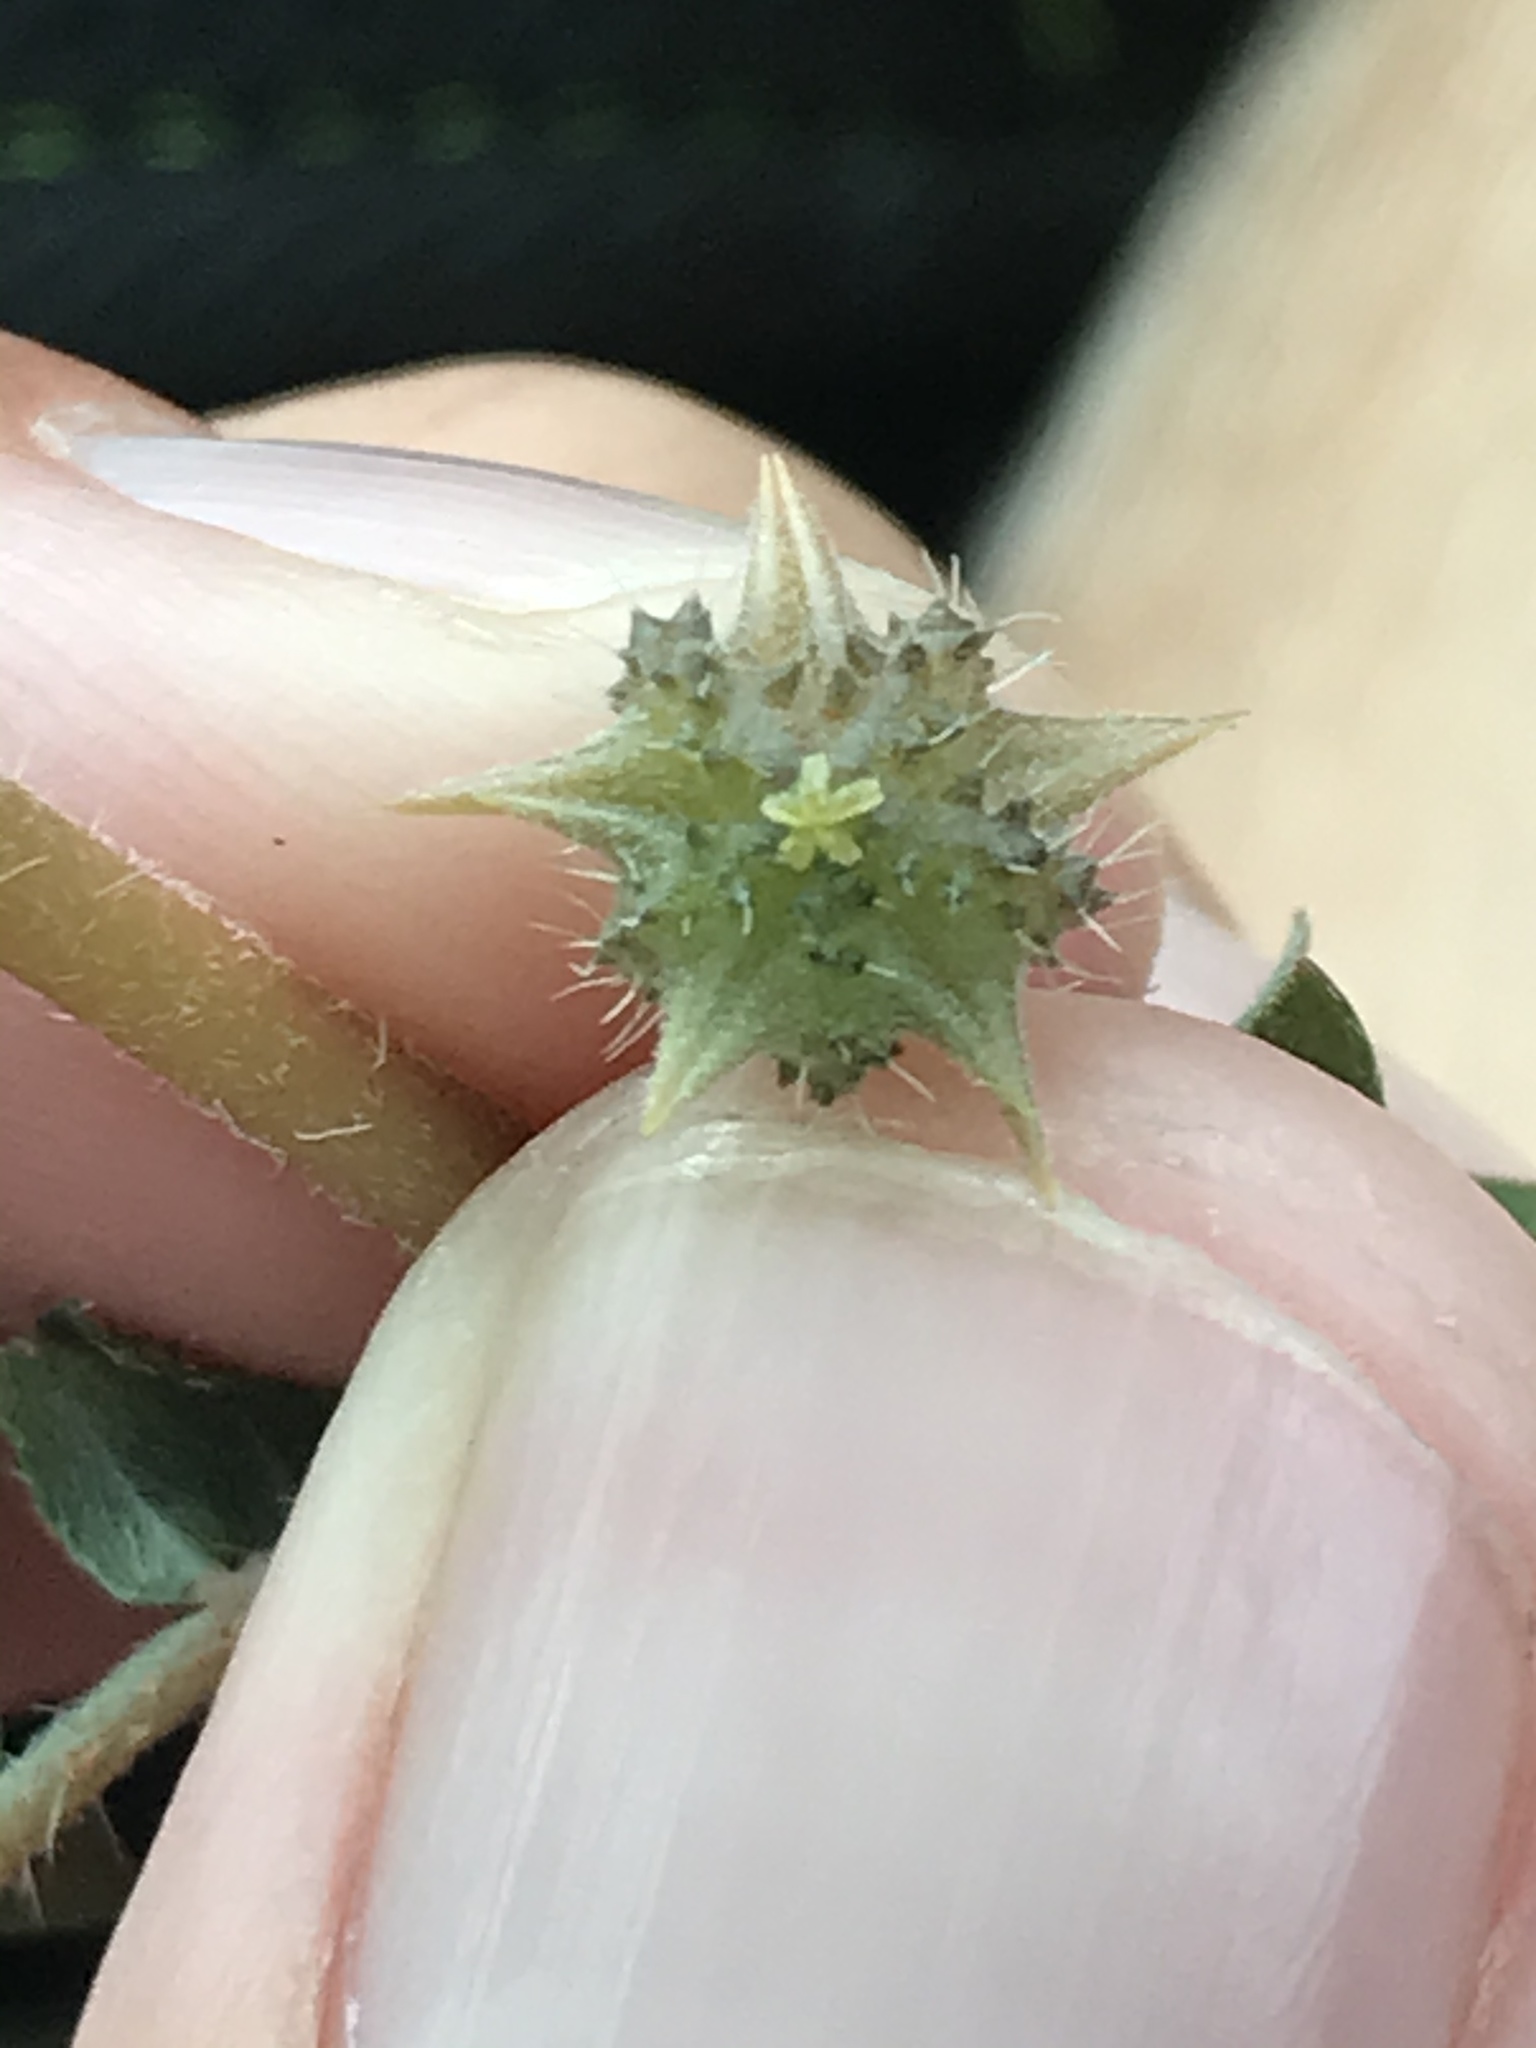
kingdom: Plantae
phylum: Tracheophyta
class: Magnoliopsida
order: Zygophyllales
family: Zygophyllaceae
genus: Tribulus
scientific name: Tribulus terrestris
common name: Puncturevine
